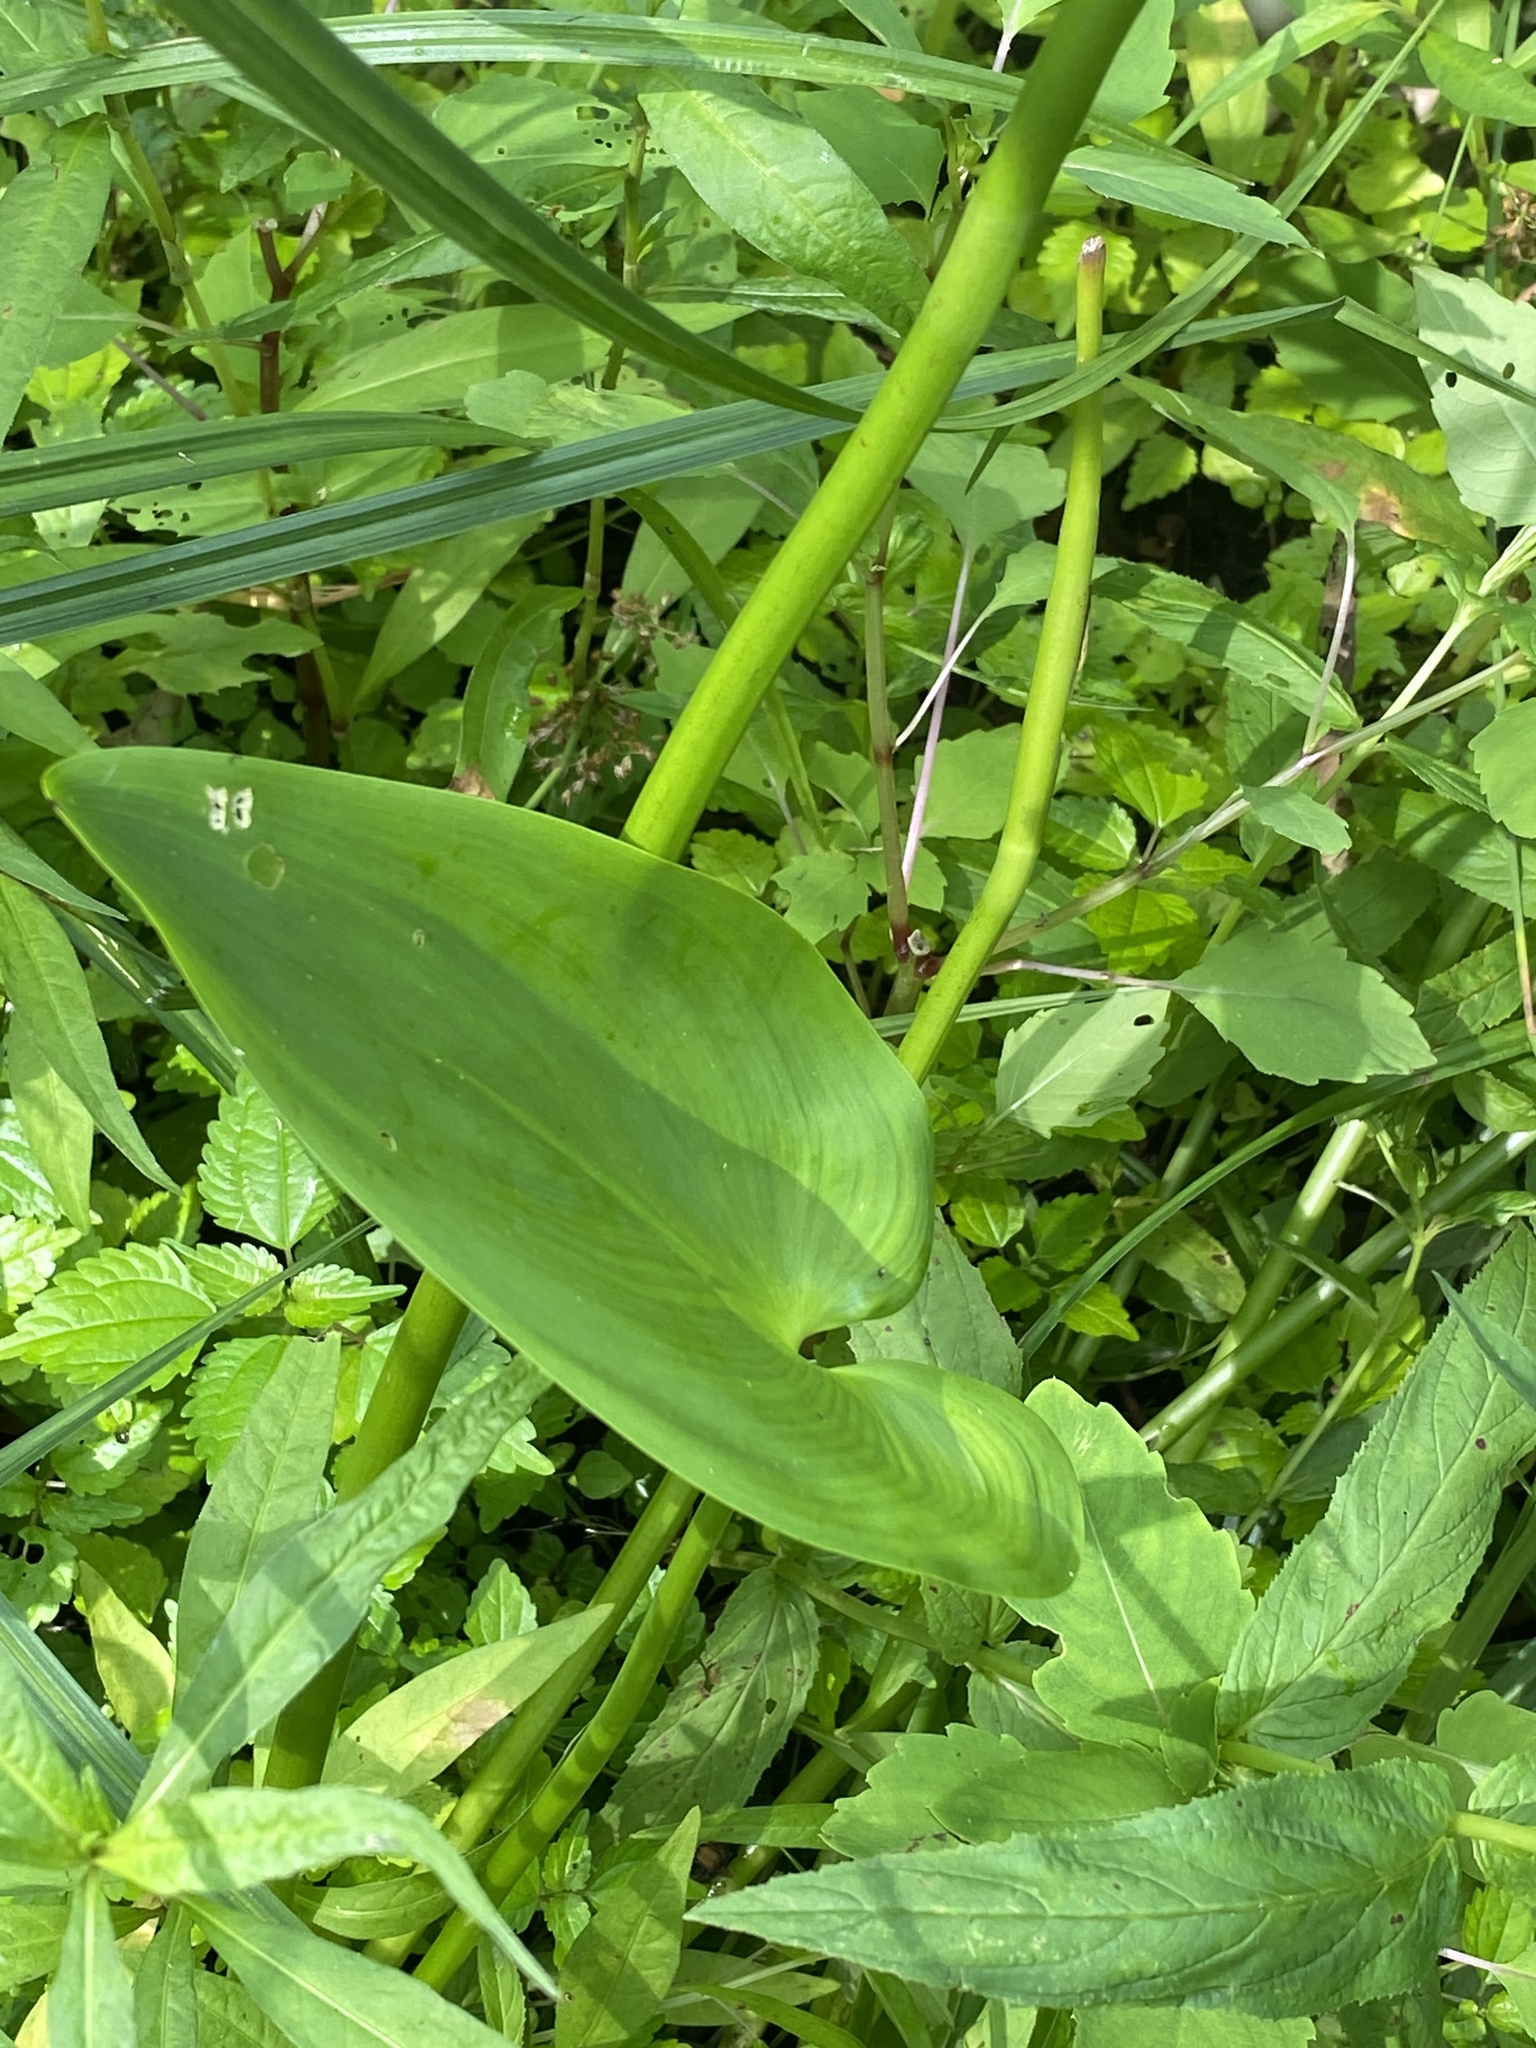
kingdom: Plantae
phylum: Tracheophyta
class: Liliopsida
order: Commelinales
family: Pontederiaceae
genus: Pontederia
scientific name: Pontederia cordata
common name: Pickerelweed
